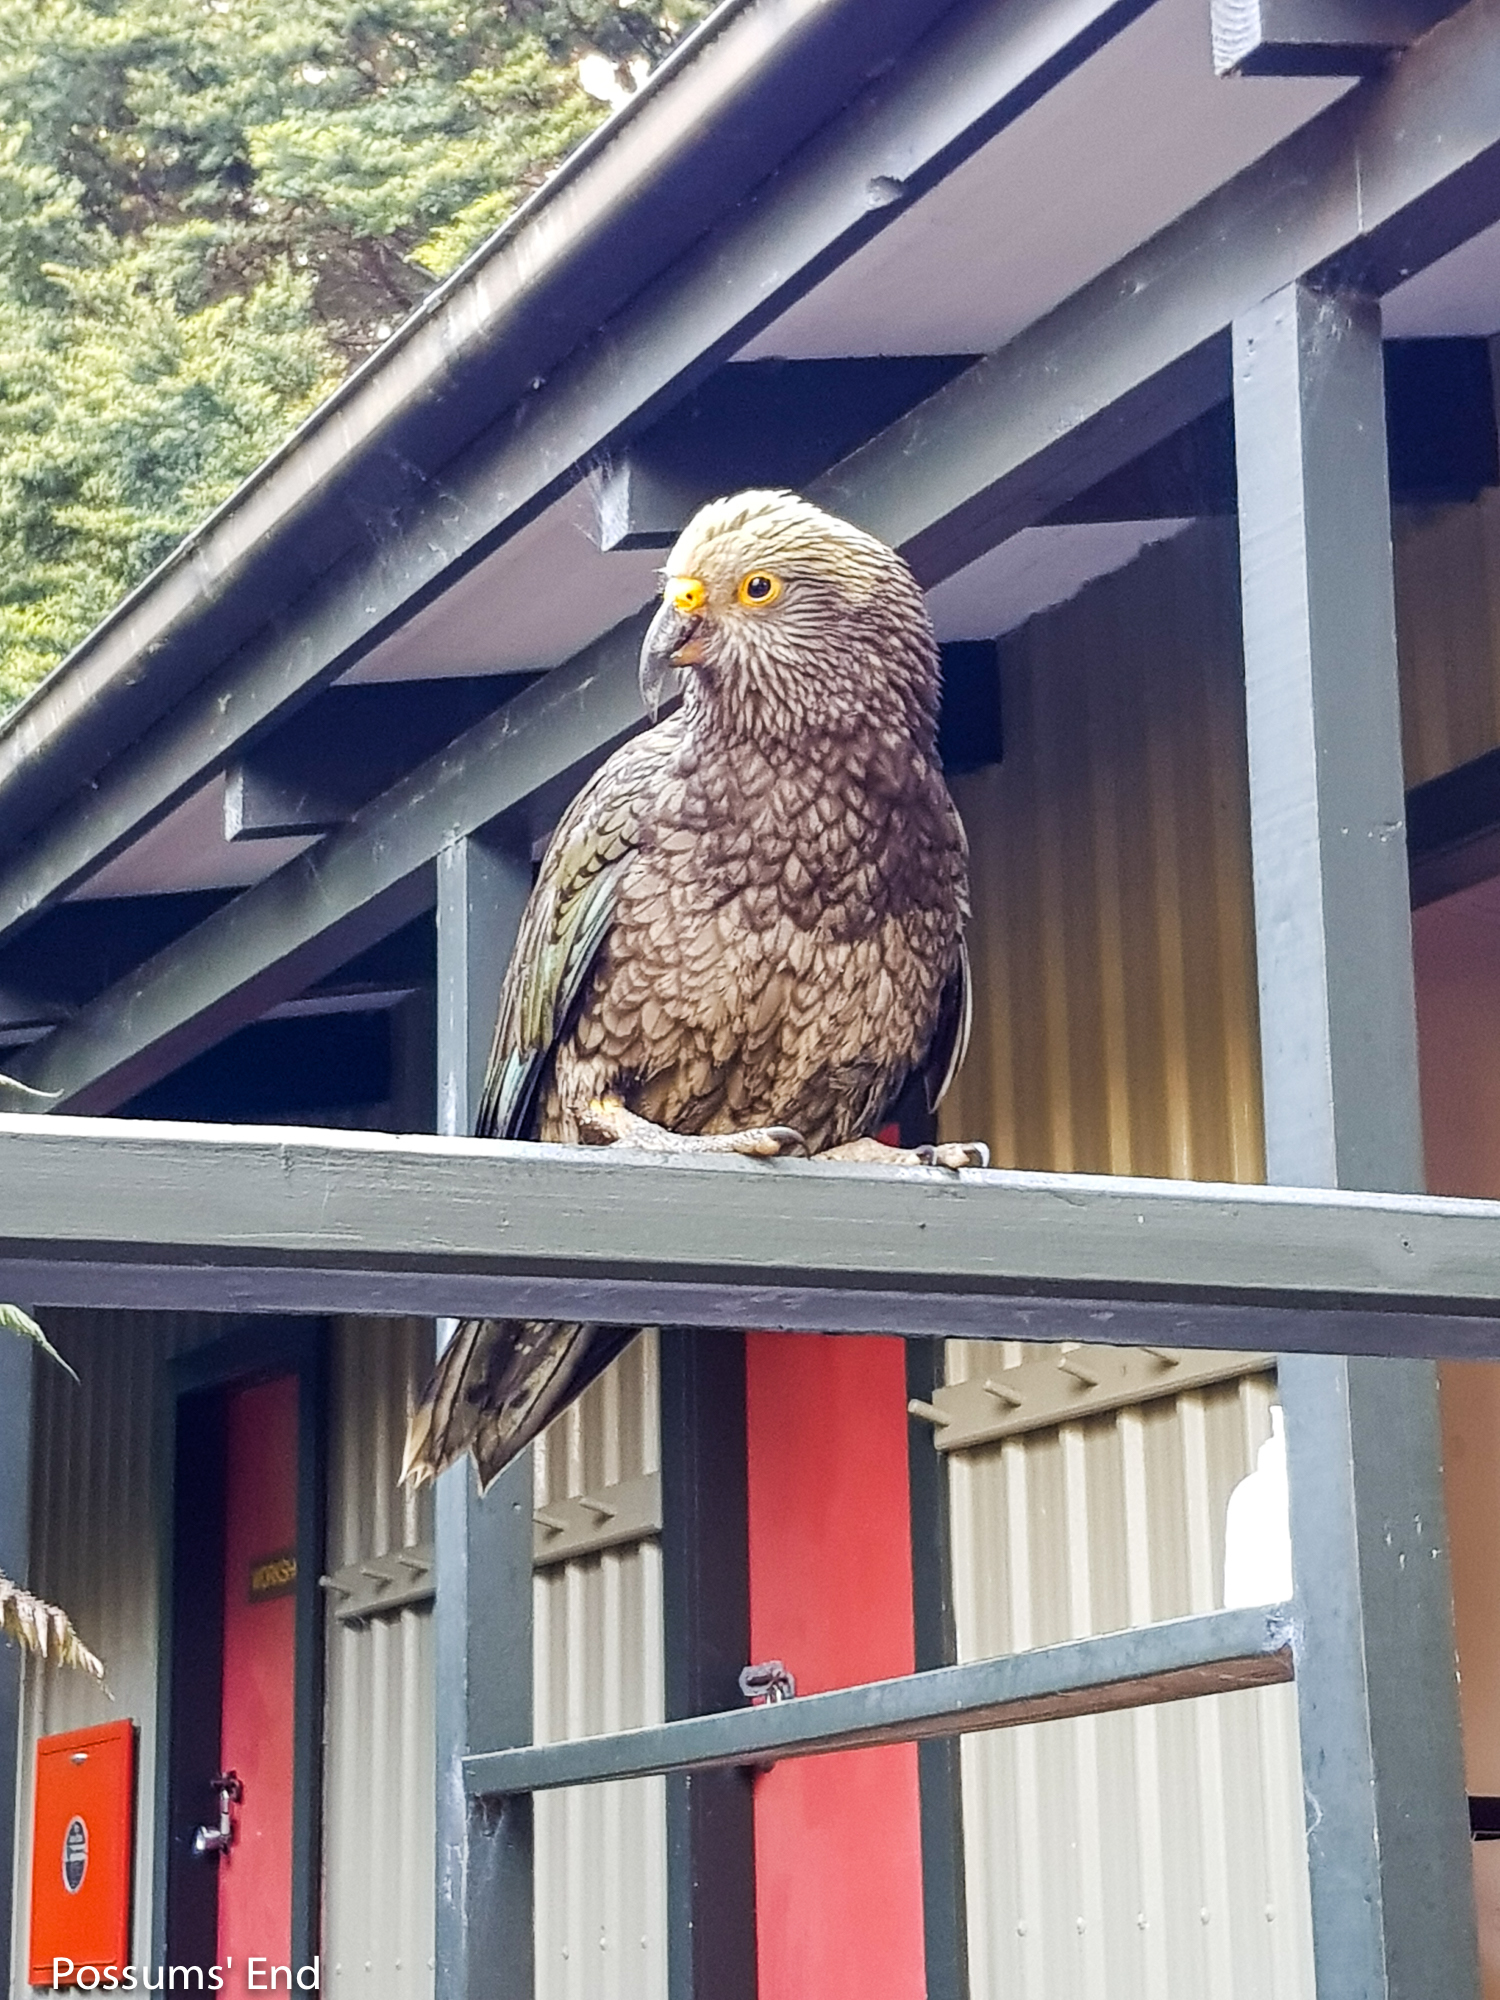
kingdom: Animalia
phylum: Chordata
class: Aves
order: Psittaciformes
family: Psittacidae
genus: Nestor
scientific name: Nestor notabilis
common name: Kea
